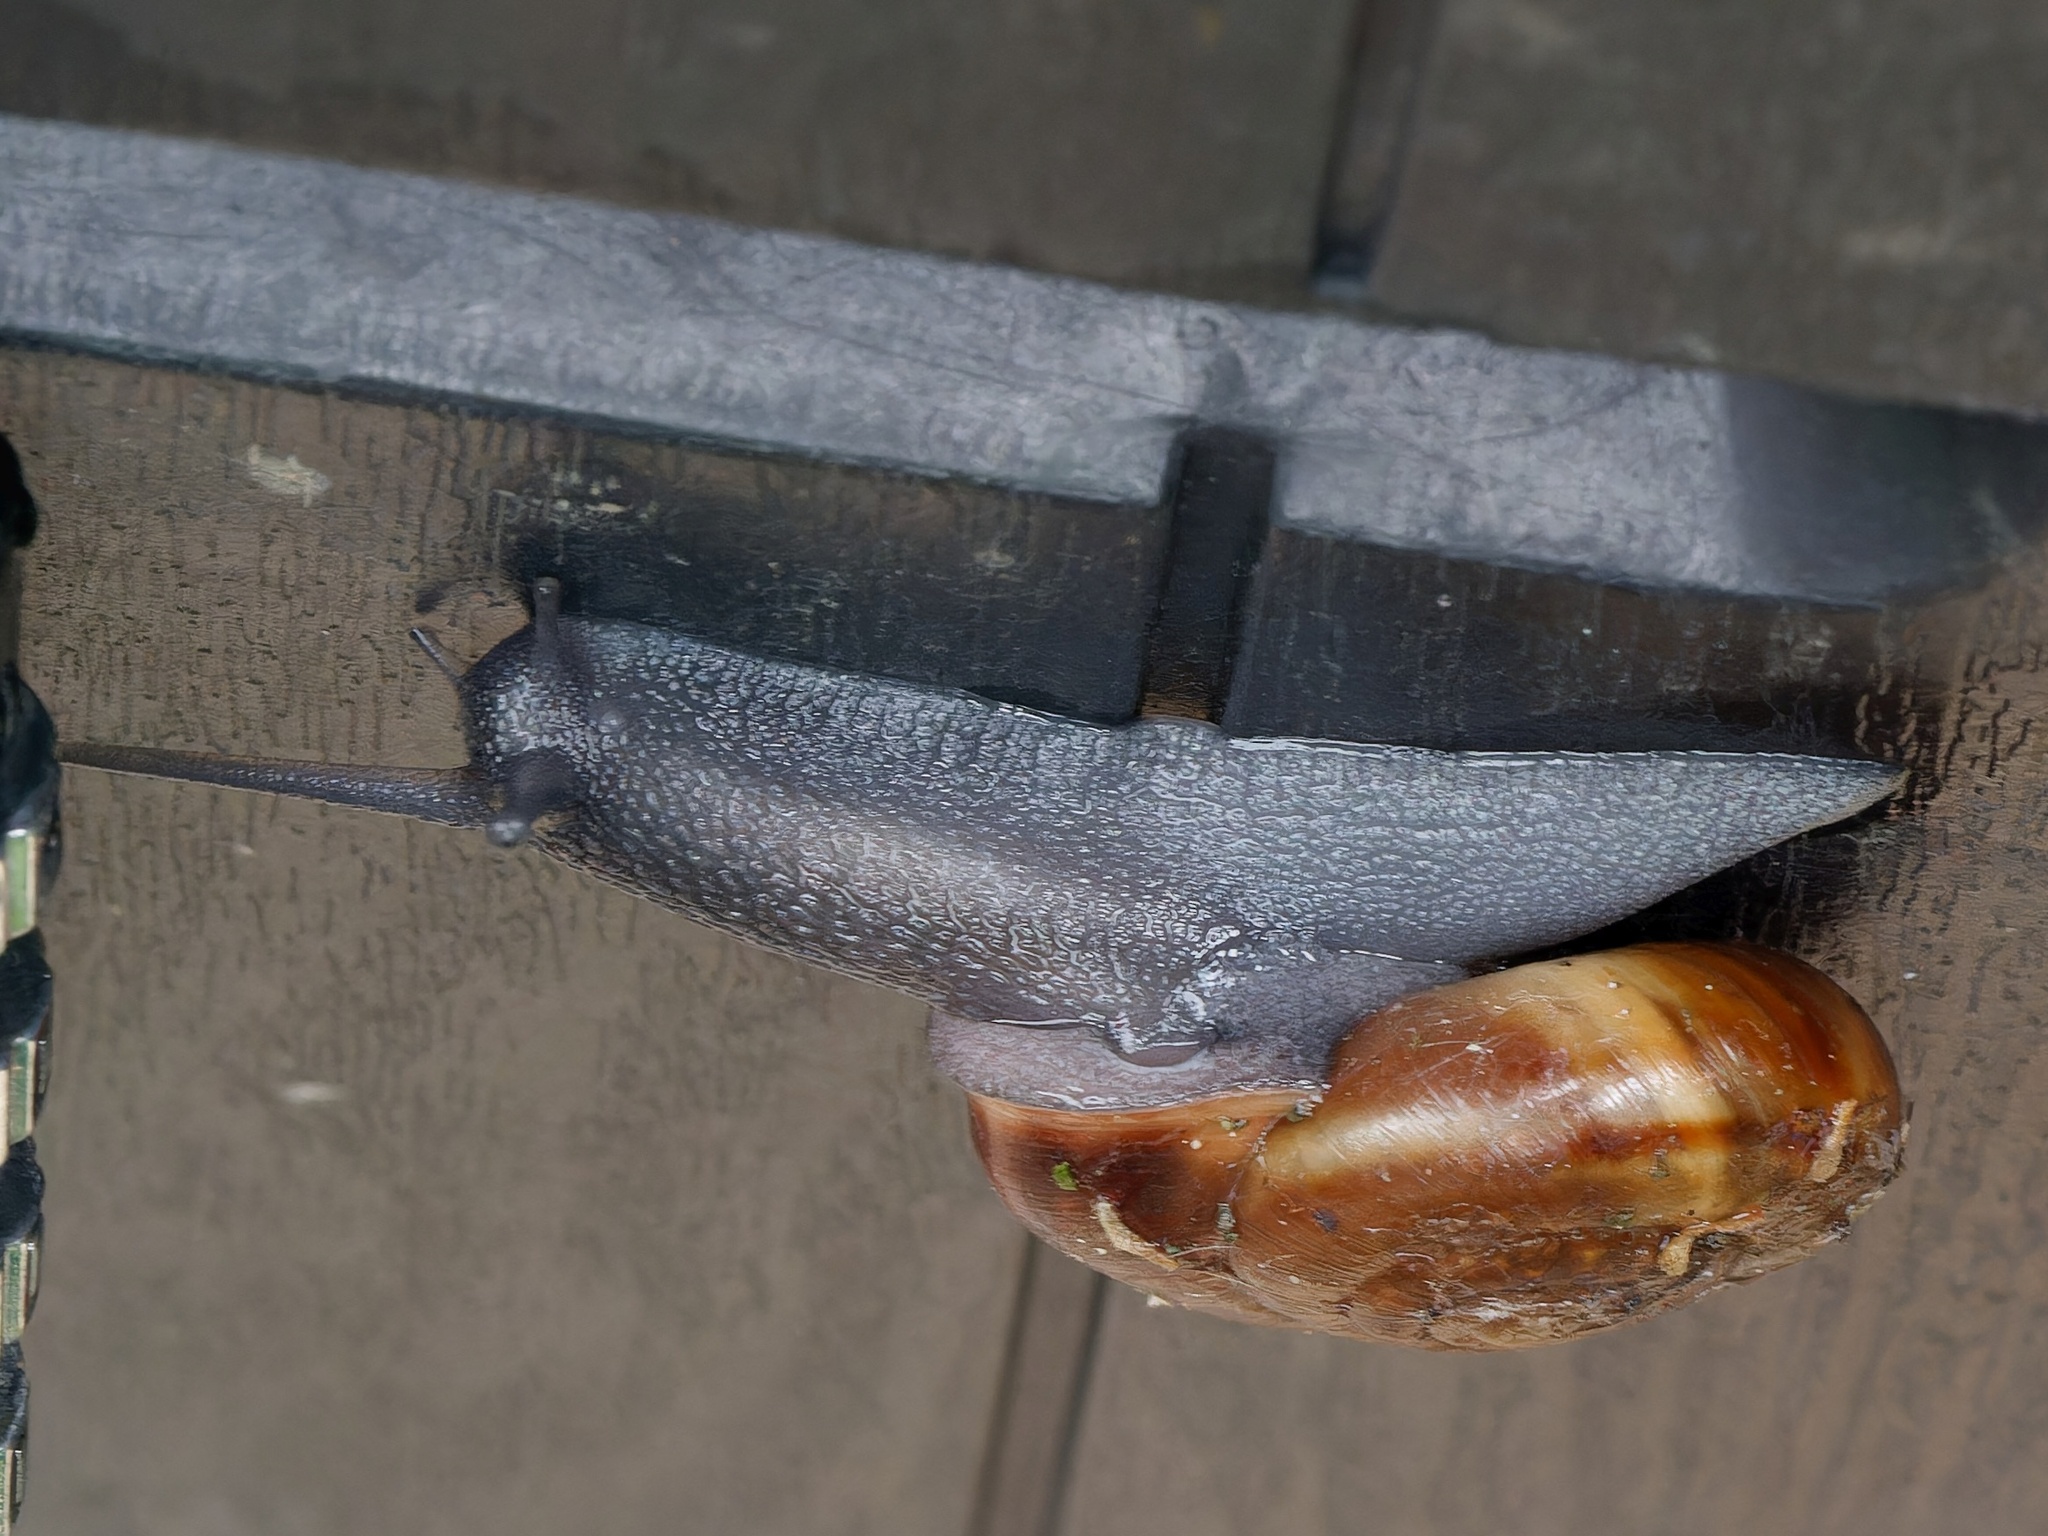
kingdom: Animalia
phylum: Mollusca
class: Gastropoda
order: Stylommatophora
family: Helicidae
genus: Campylaea
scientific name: Campylaea illyrica
